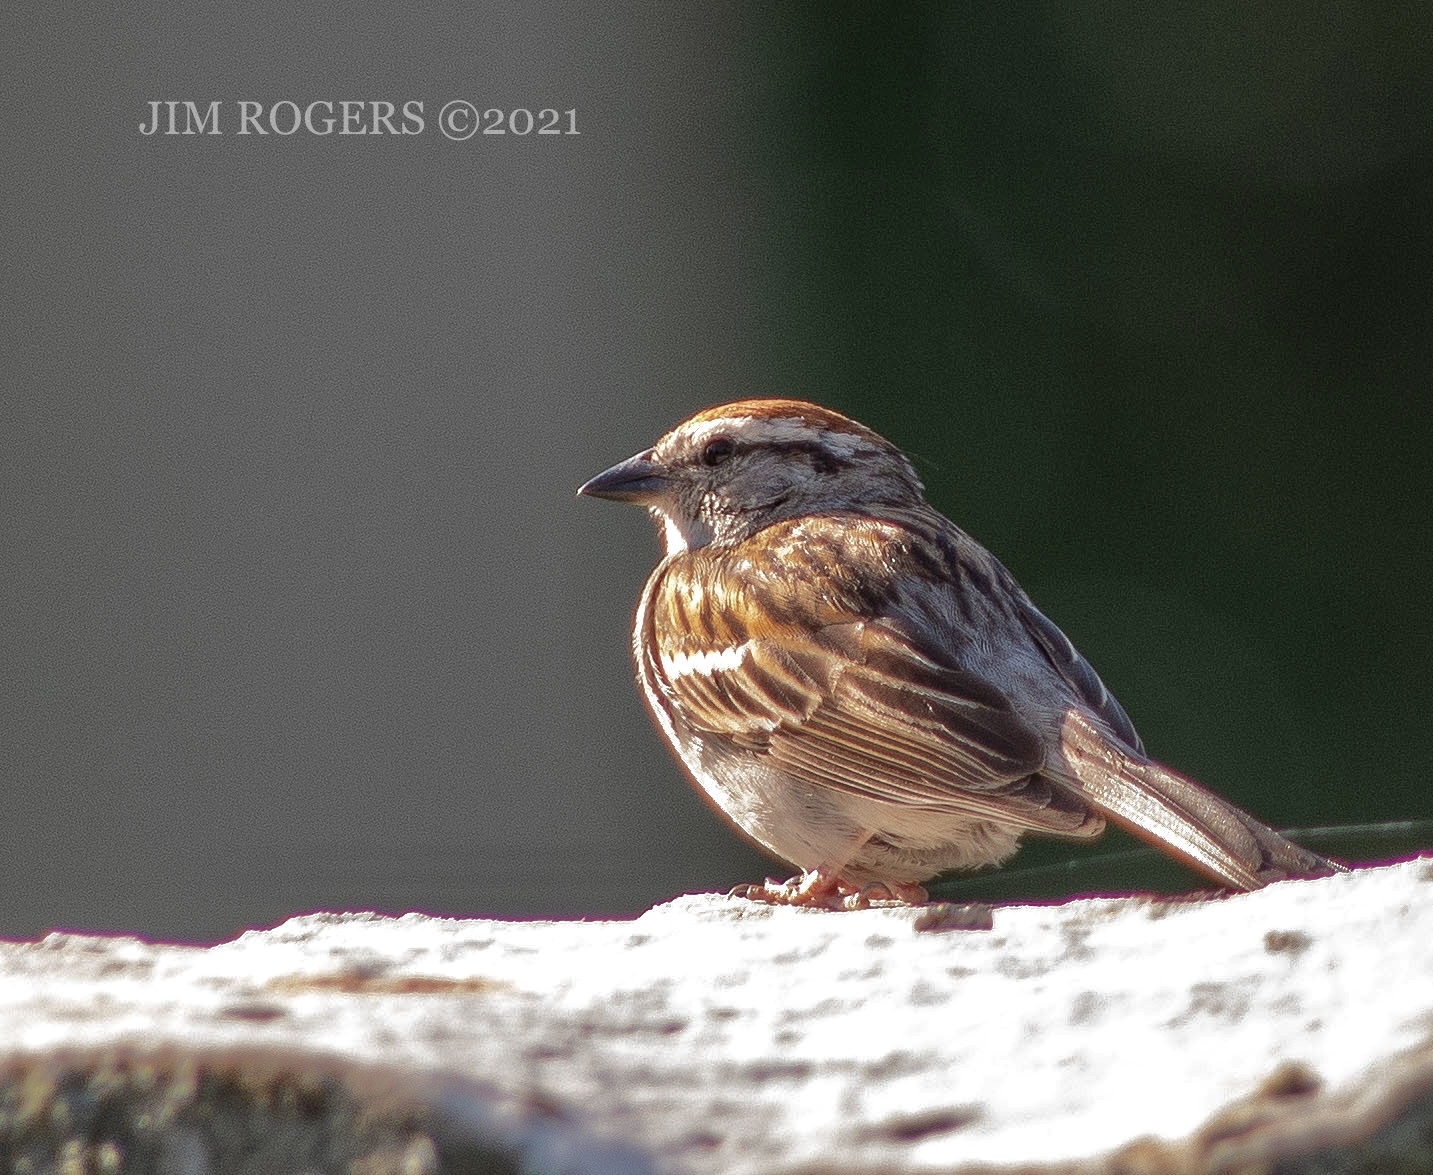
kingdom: Animalia
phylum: Chordata
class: Aves
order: Passeriformes
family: Passerellidae
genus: Spizella
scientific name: Spizella passerina
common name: Chipping sparrow
